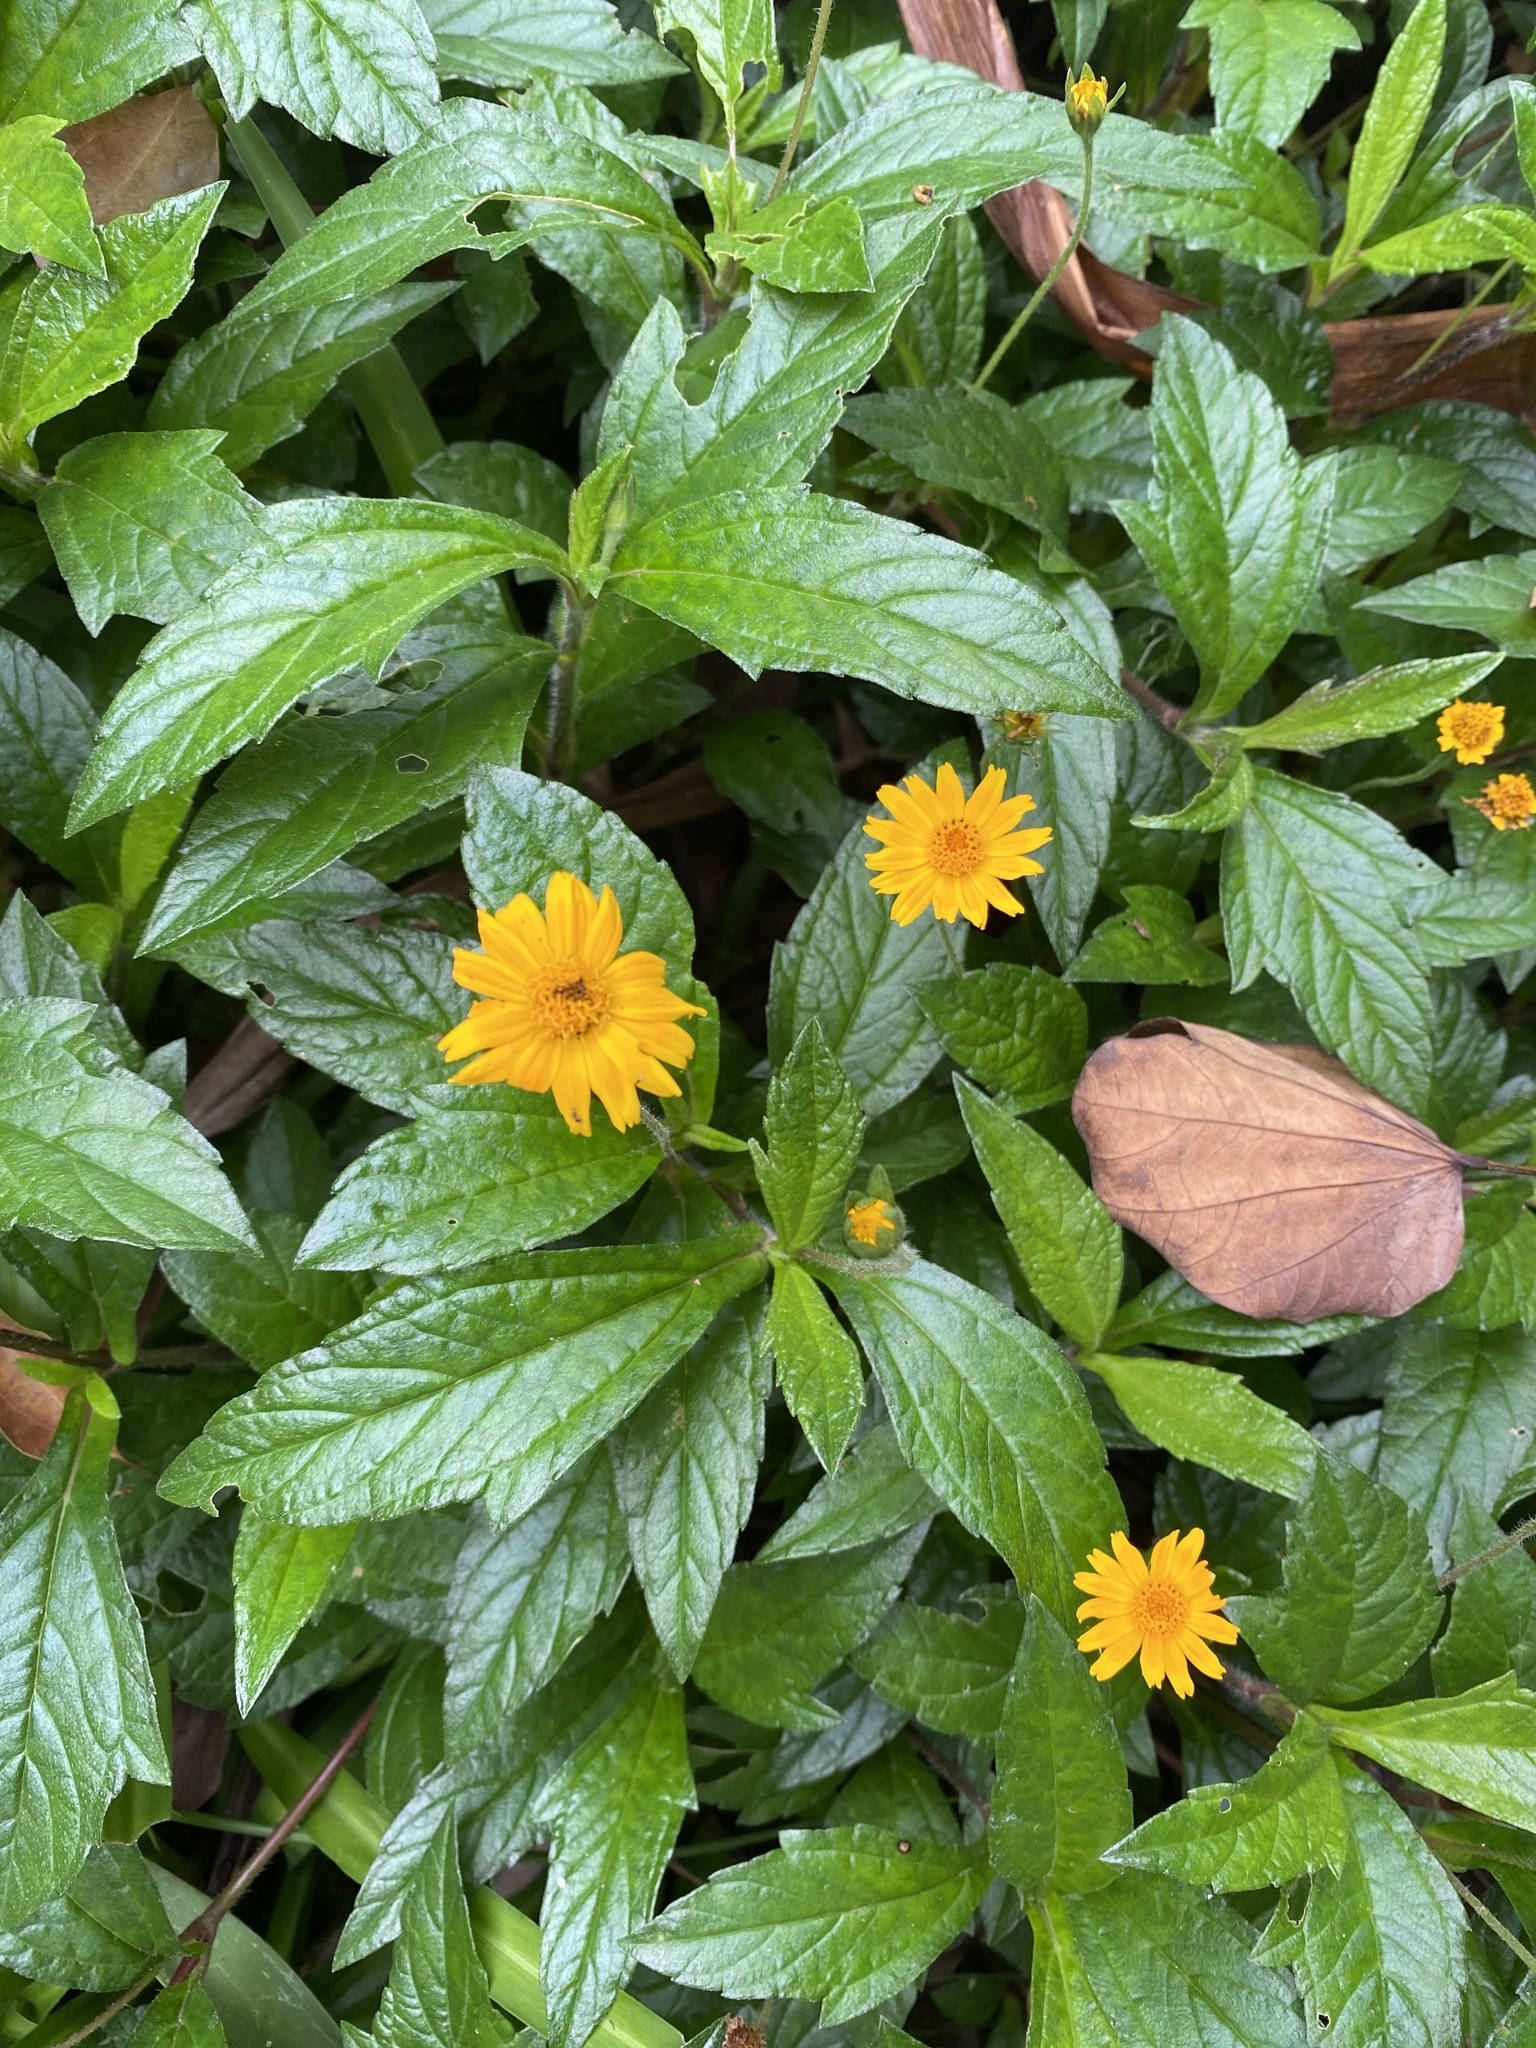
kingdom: Plantae
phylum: Tracheophyta
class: Magnoliopsida
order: Asterales
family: Asteraceae
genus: Sphagneticola
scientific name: Sphagneticola trilobata
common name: Bay biscayne creeping-oxeye
